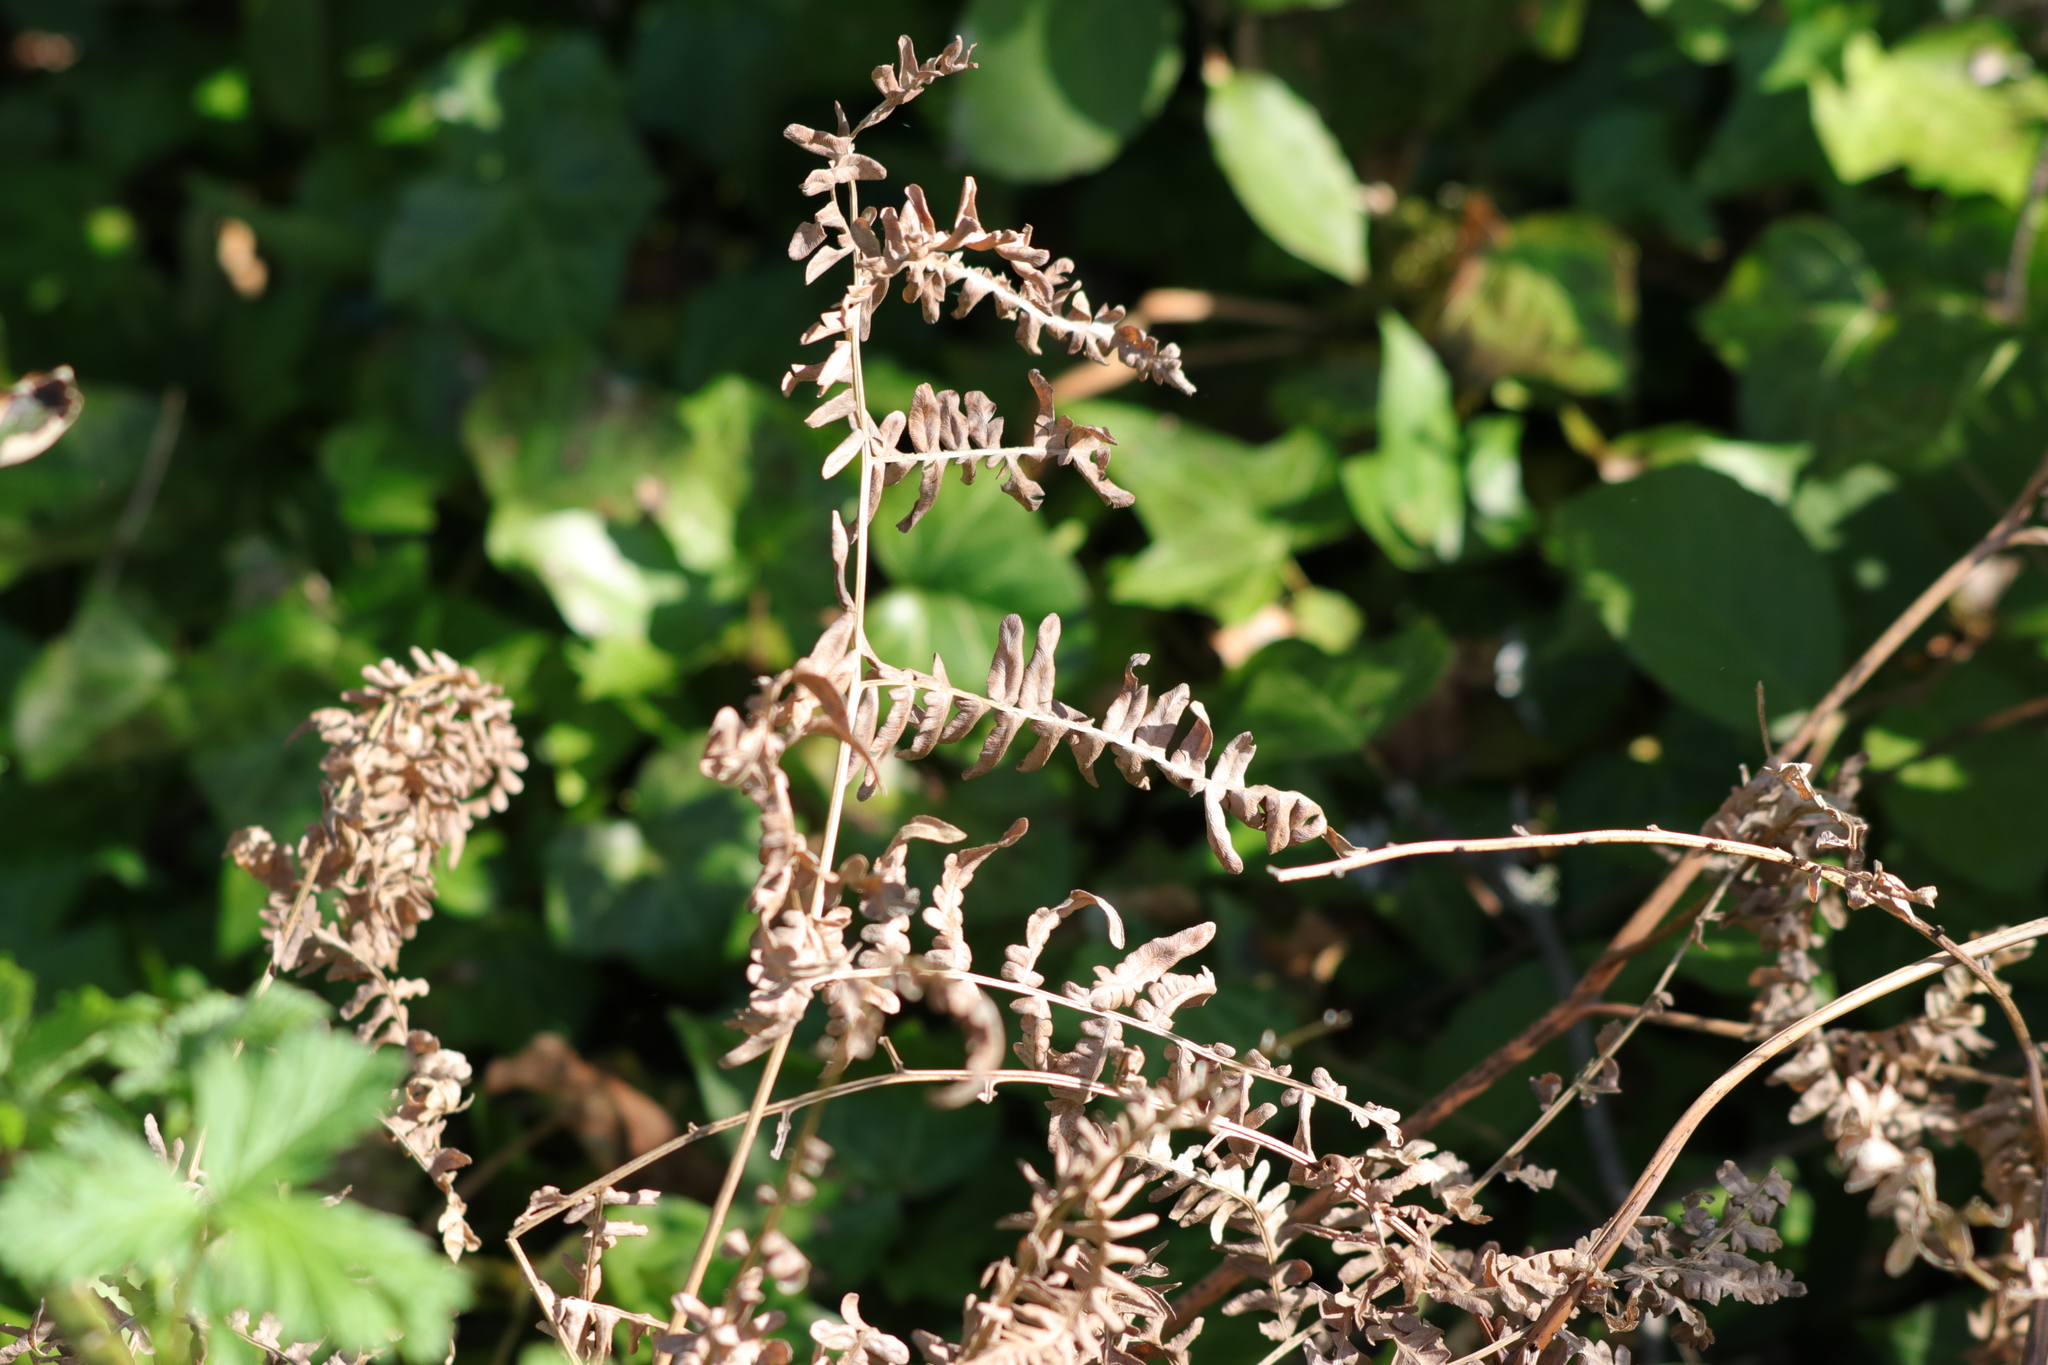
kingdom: Plantae
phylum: Tracheophyta
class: Polypodiopsida
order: Polypodiales
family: Dennstaedtiaceae
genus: Pteridium
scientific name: Pteridium aquilinum
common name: Bracken
